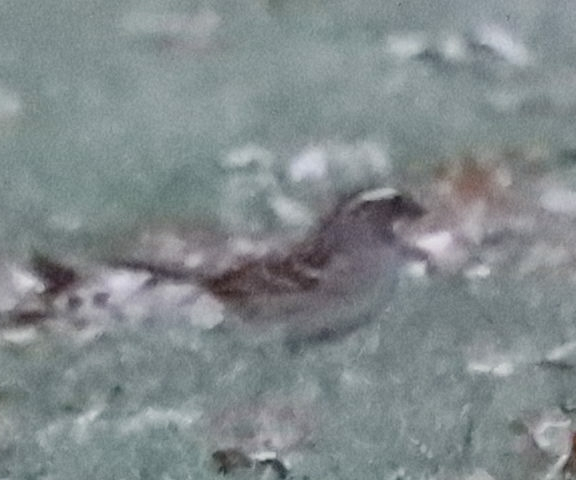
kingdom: Animalia
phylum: Chordata
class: Aves
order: Passeriformes
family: Passerellidae
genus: Zonotrichia
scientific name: Zonotrichia albicollis
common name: White-throated sparrow
